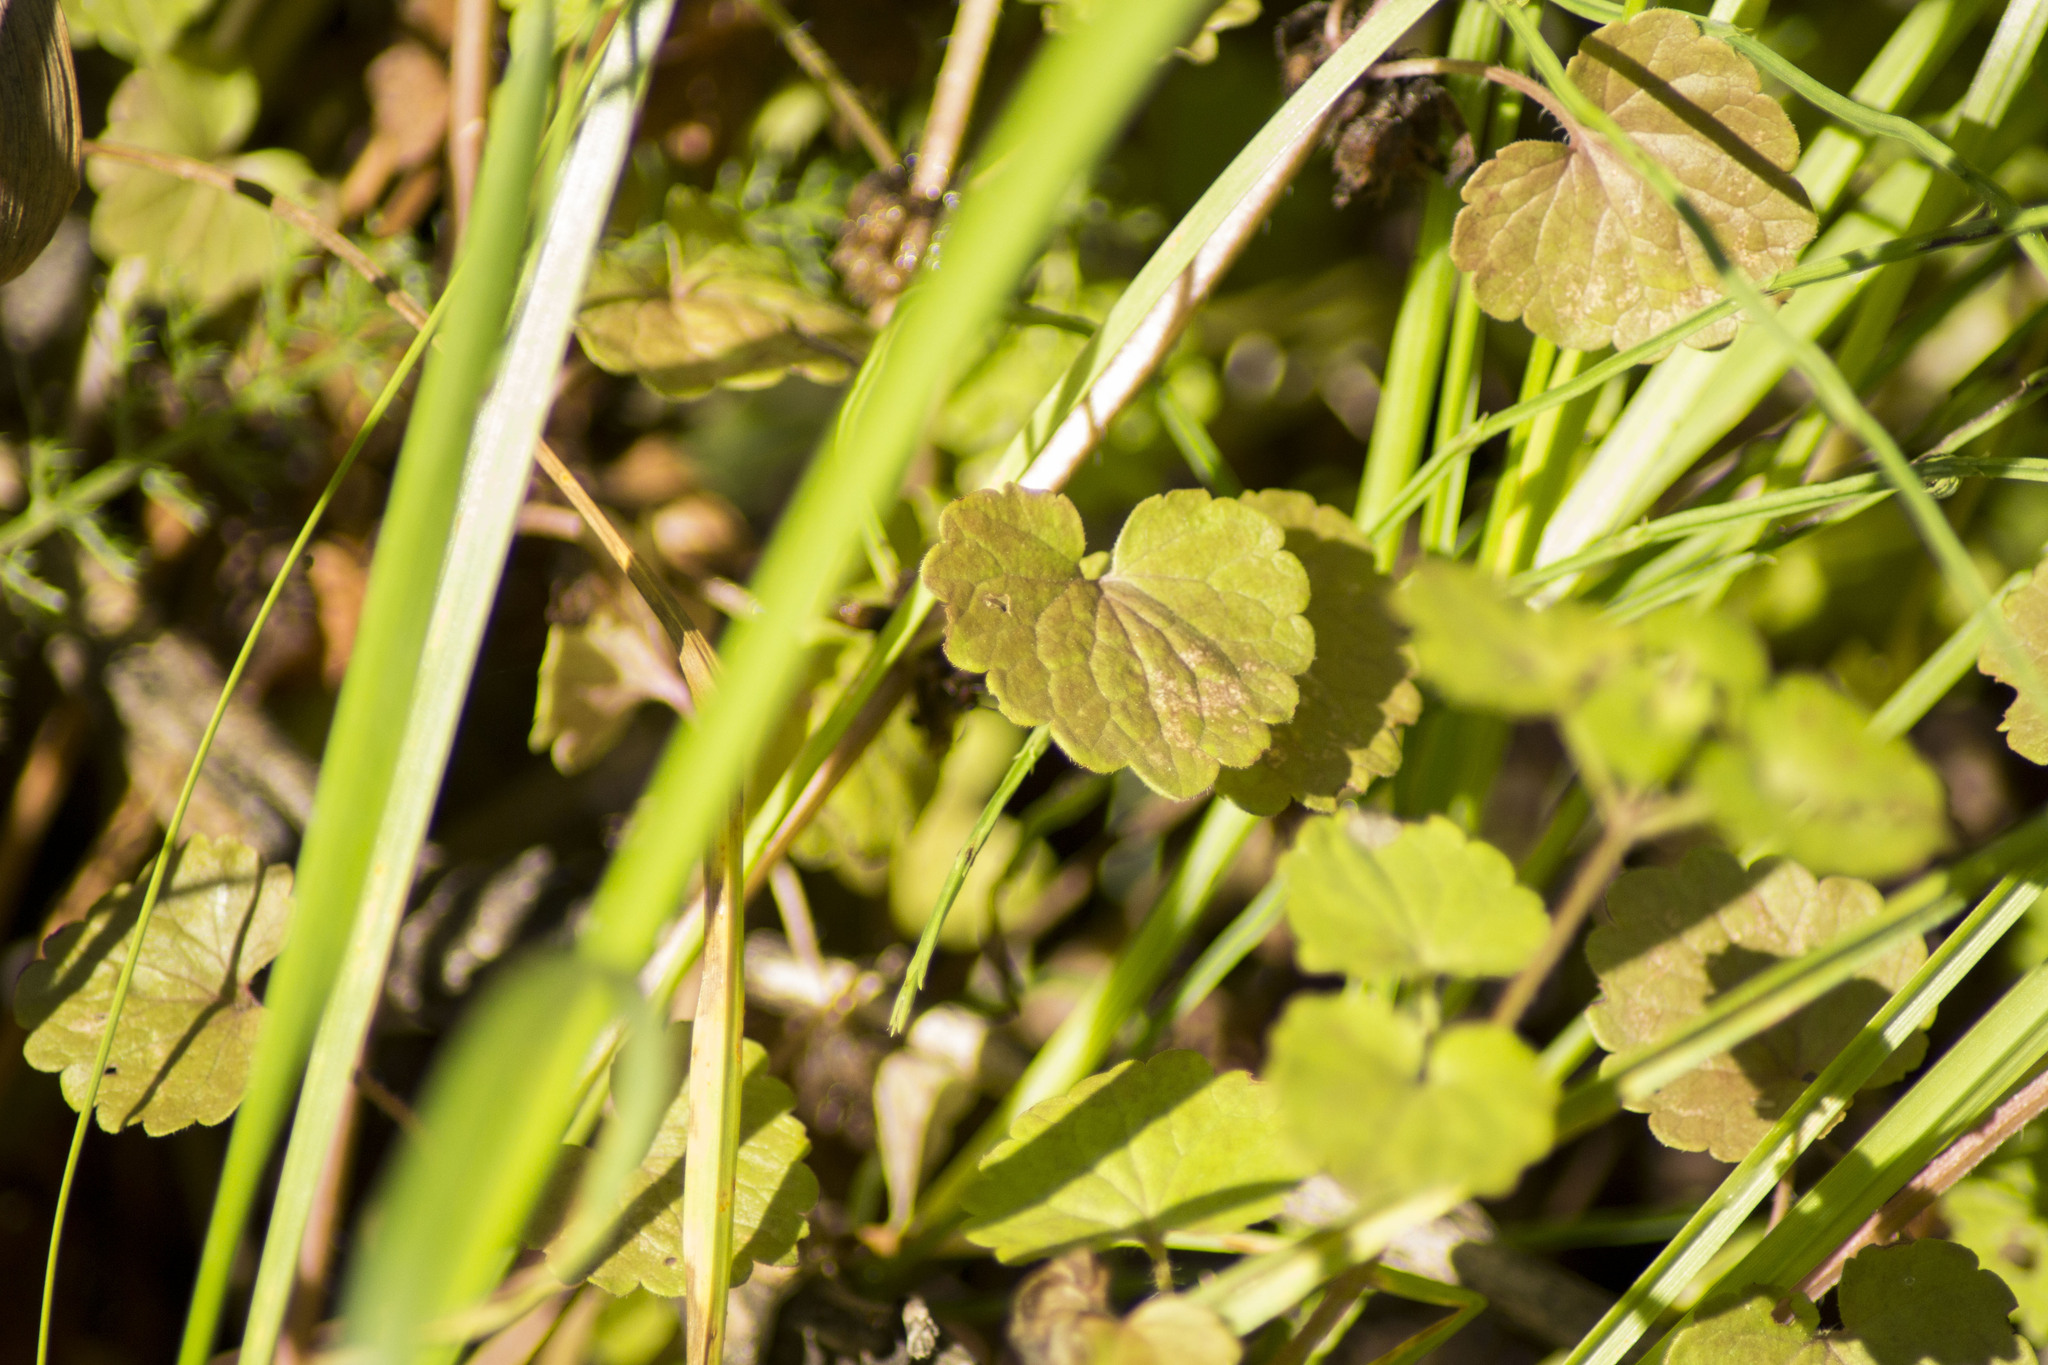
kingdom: Plantae
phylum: Tracheophyta
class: Magnoliopsida
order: Lamiales
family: Lamiaceae
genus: Glechoma
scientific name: Glechoma hederacea
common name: Ground ivy
